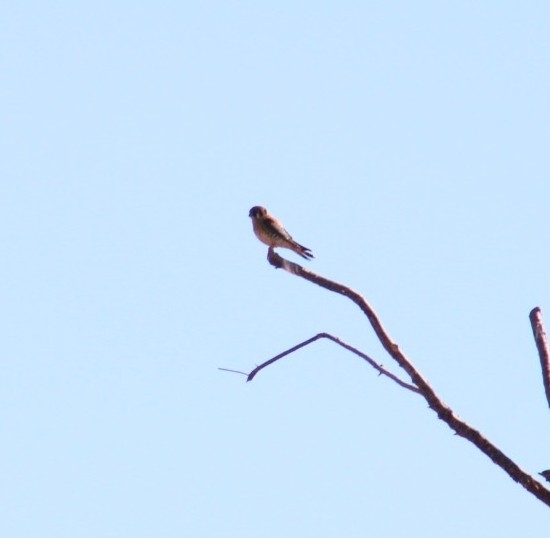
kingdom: Animalia
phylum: Chordata
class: Aves
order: Falconiformes
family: Falconidae
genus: Falco
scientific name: Falco sparverius
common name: American kestrel
